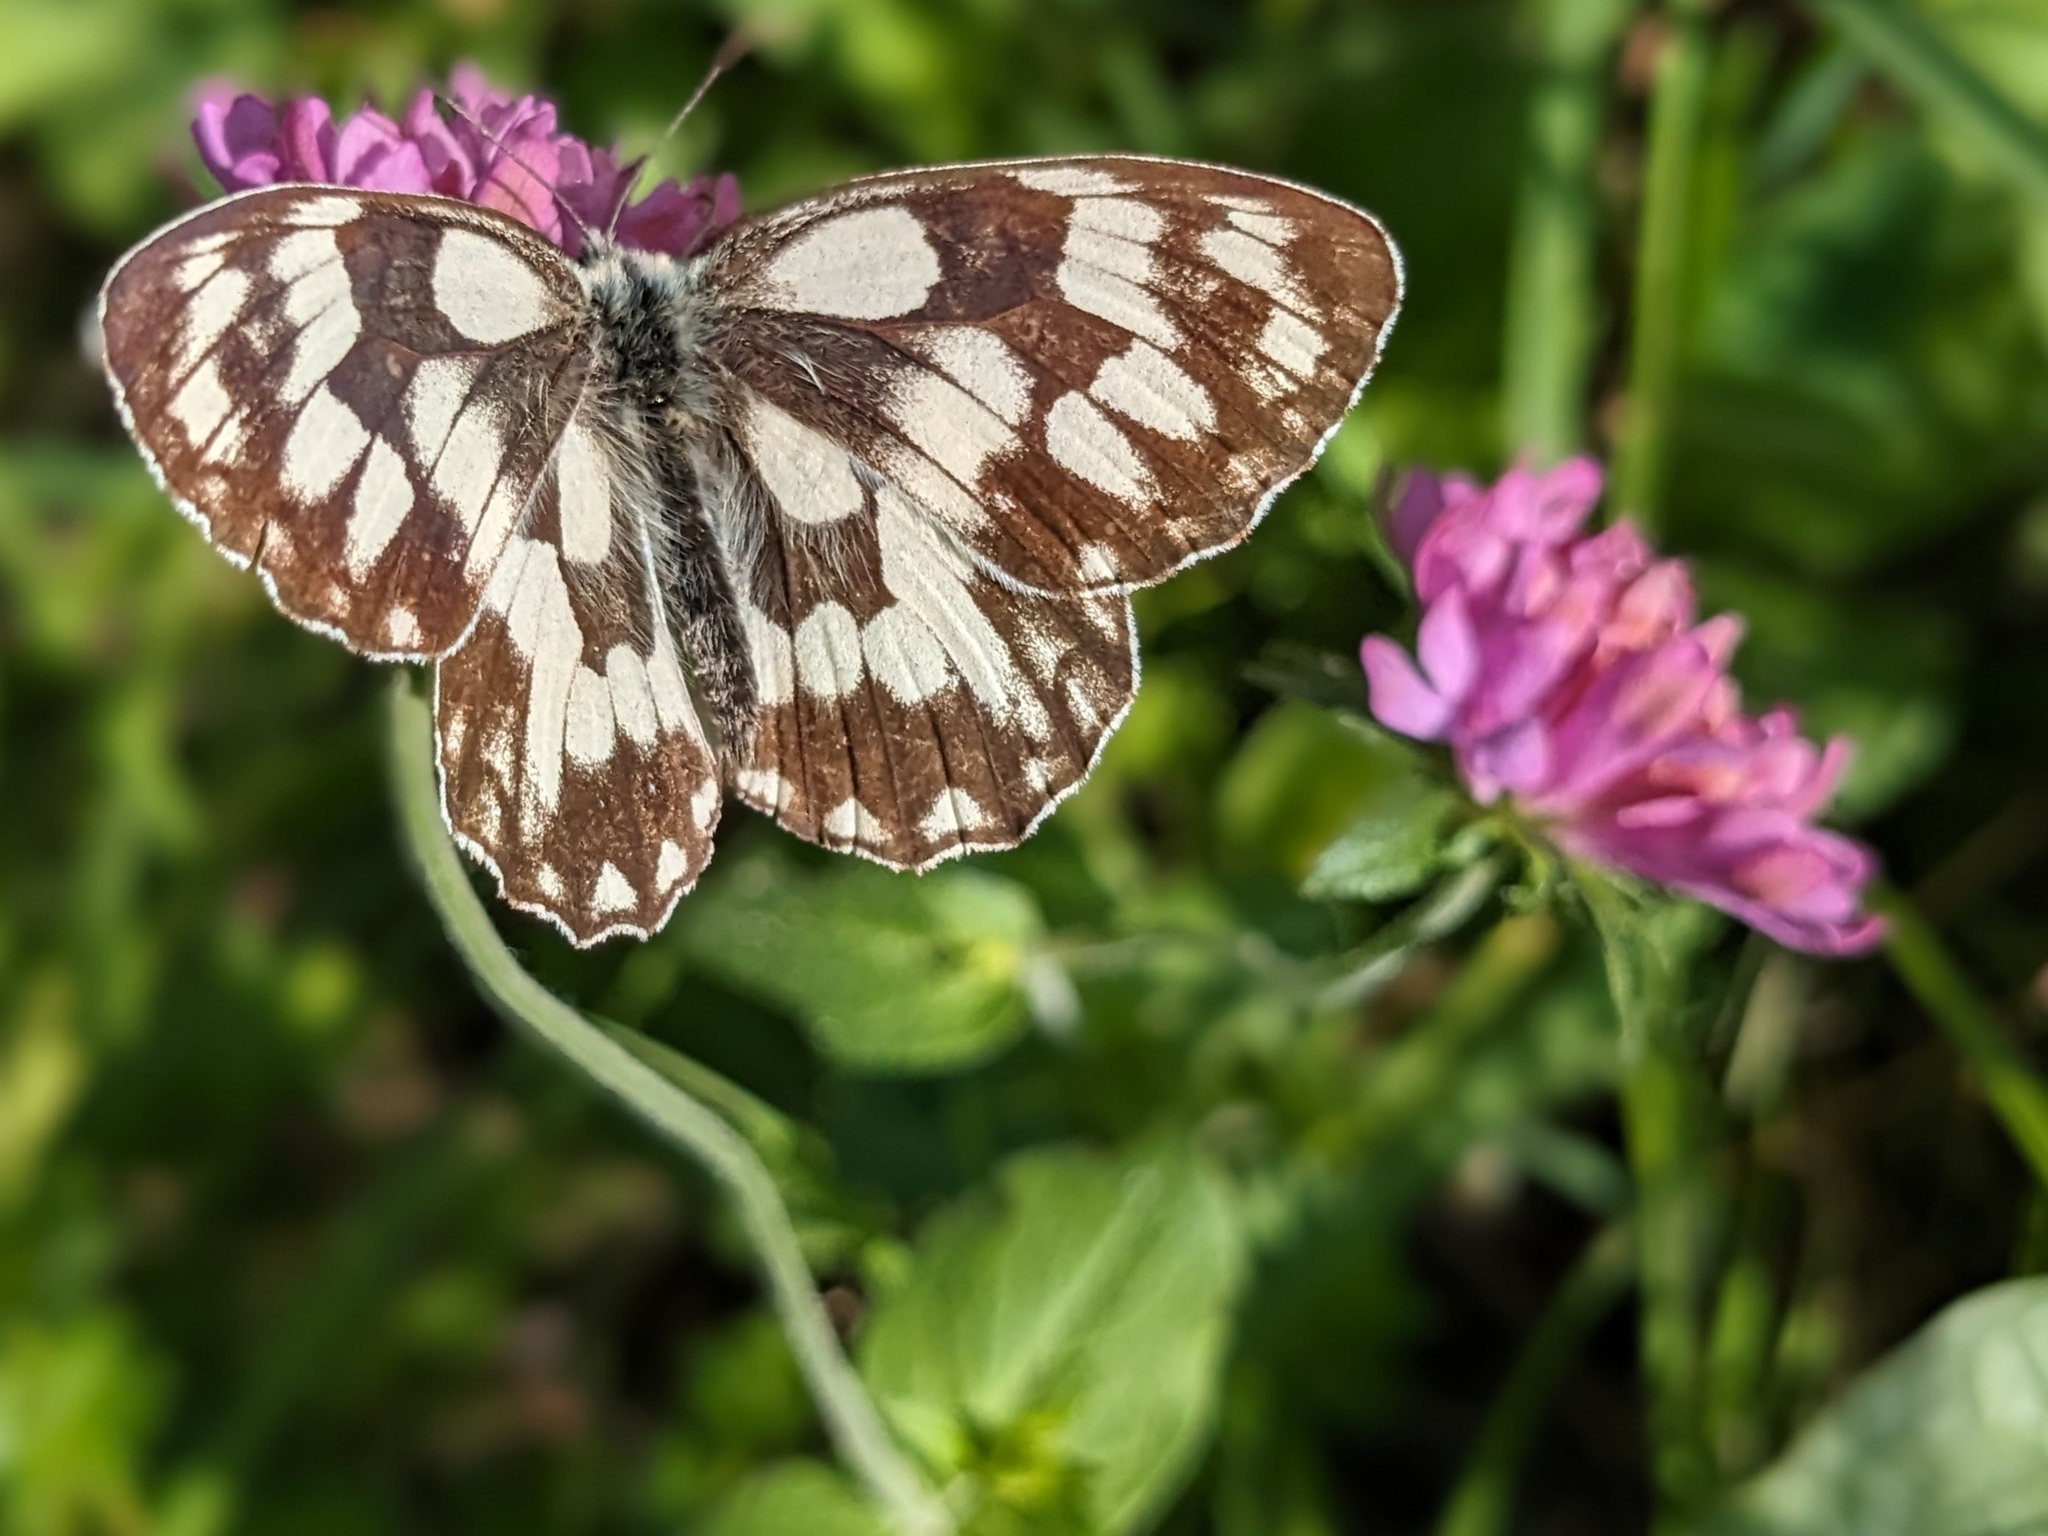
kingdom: Animalia
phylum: Arthropoda
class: Insecta
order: Lepidoptera
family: Nymphalidae
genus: Melanargia
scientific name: Melanargia galathea
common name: Marbled white
